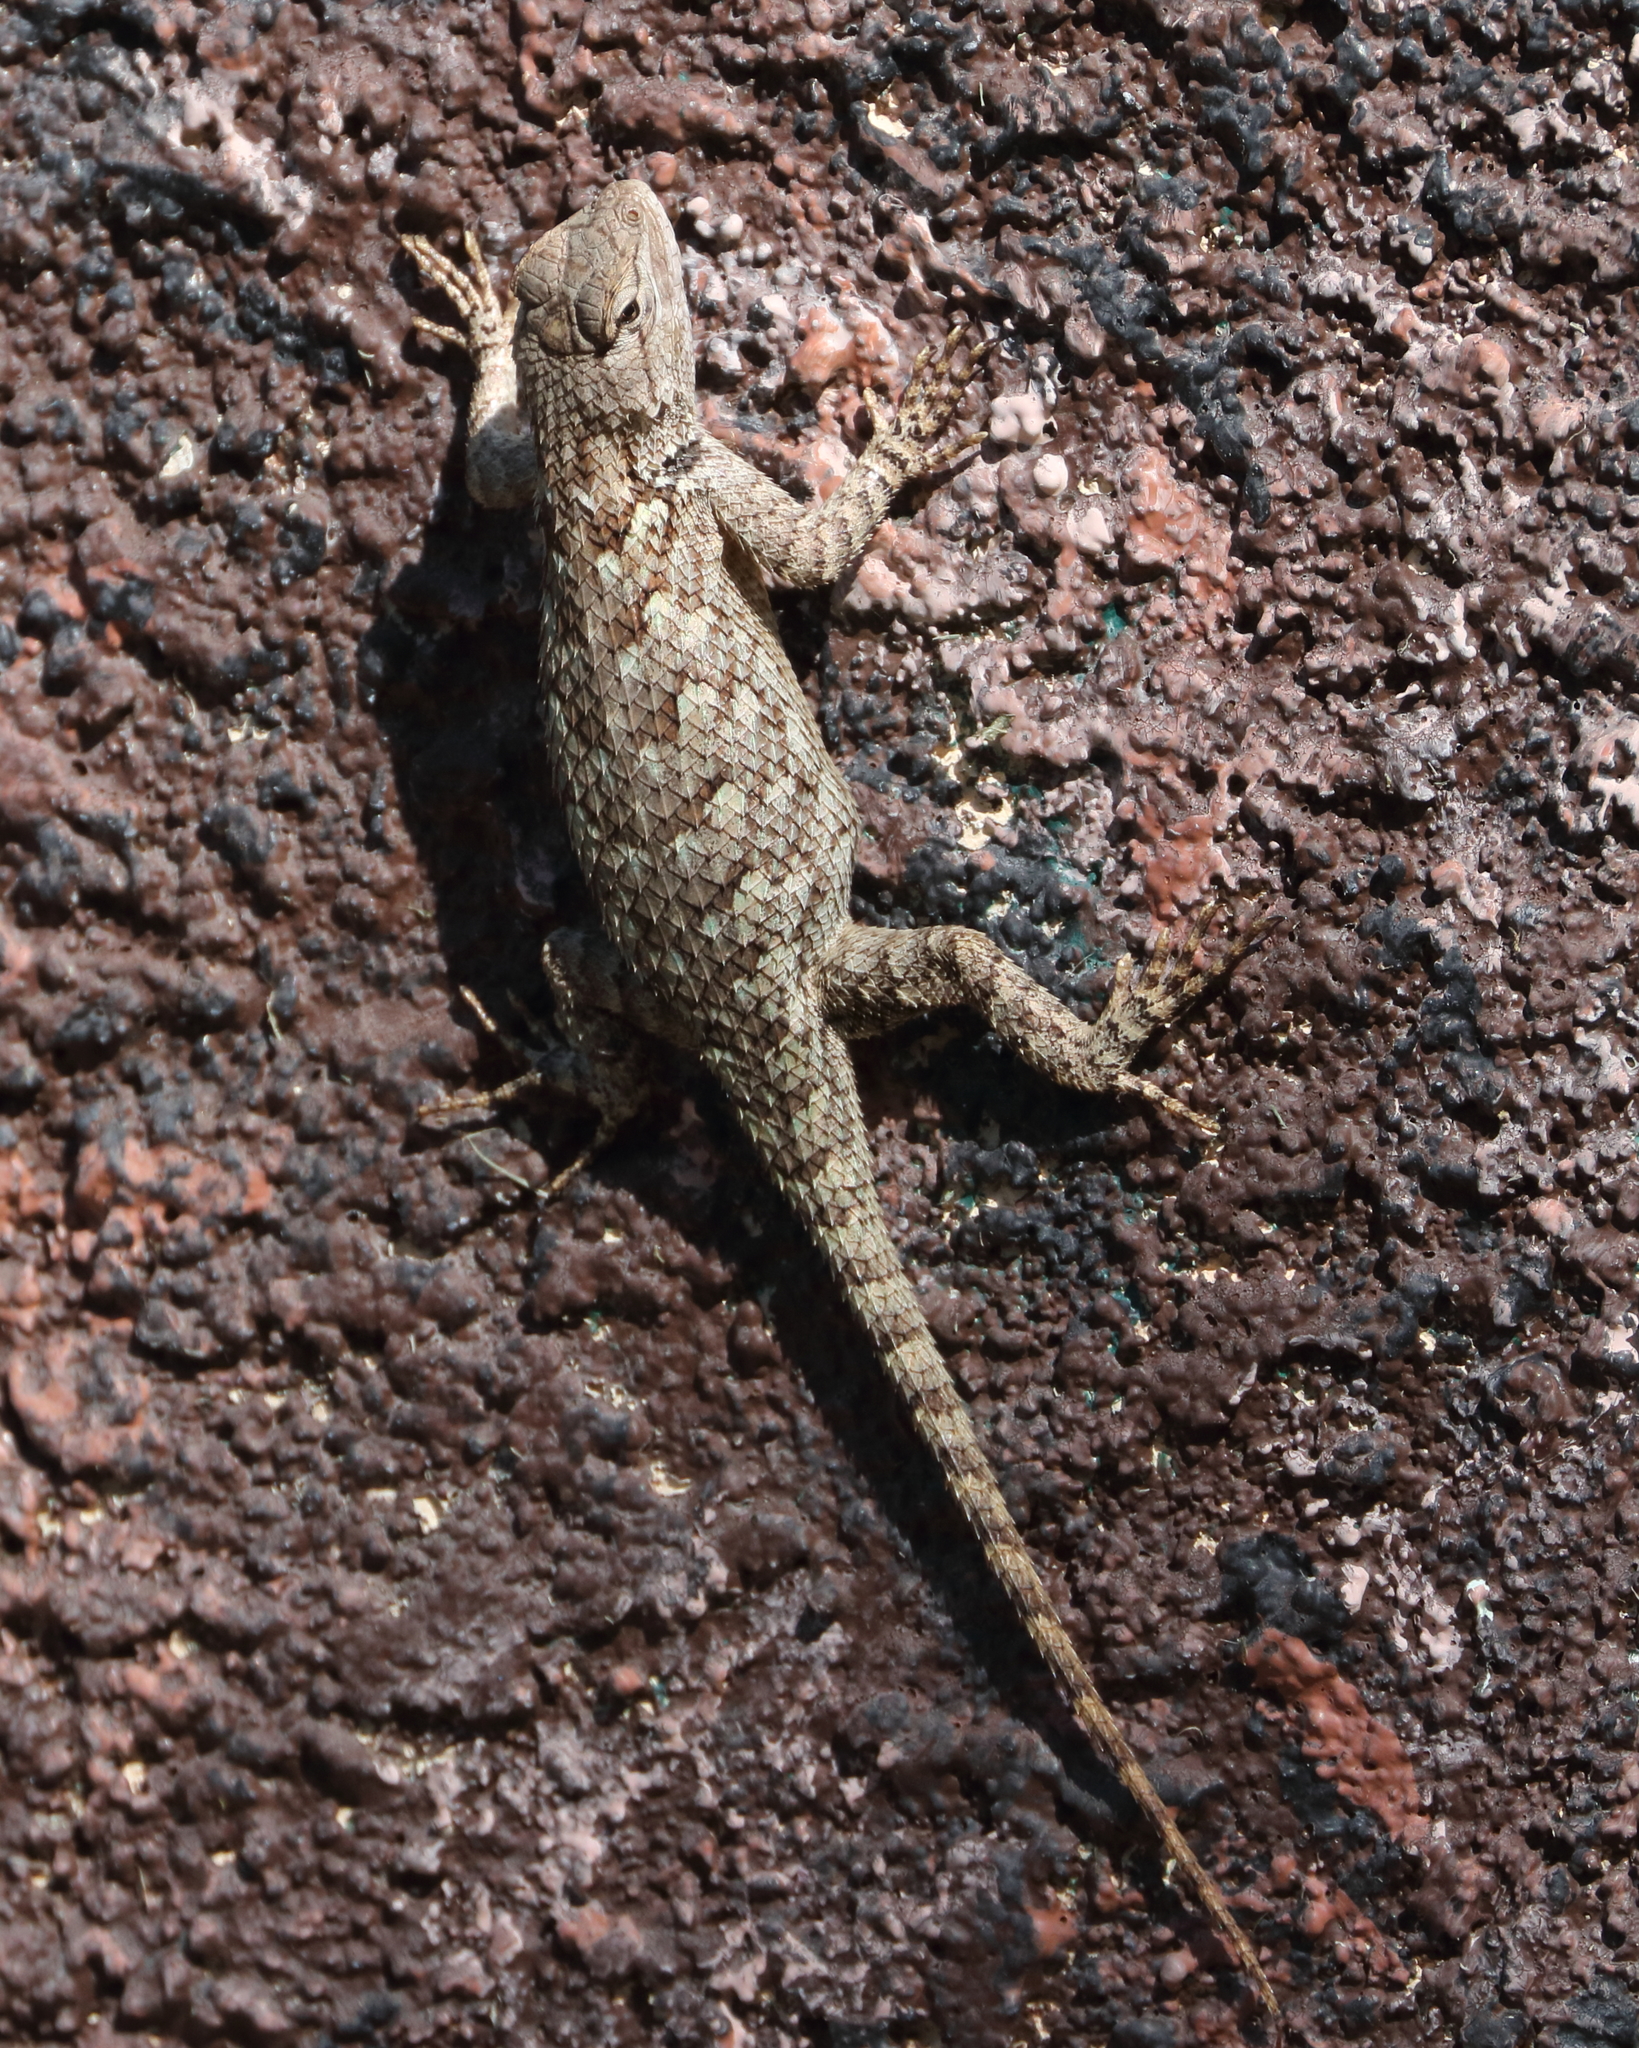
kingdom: Animalia
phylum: Chordata
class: Squamata
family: Phrynosomatidae
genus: Sceloporus
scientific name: Sceloporus clarkii
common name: Clark's spiny lizard
